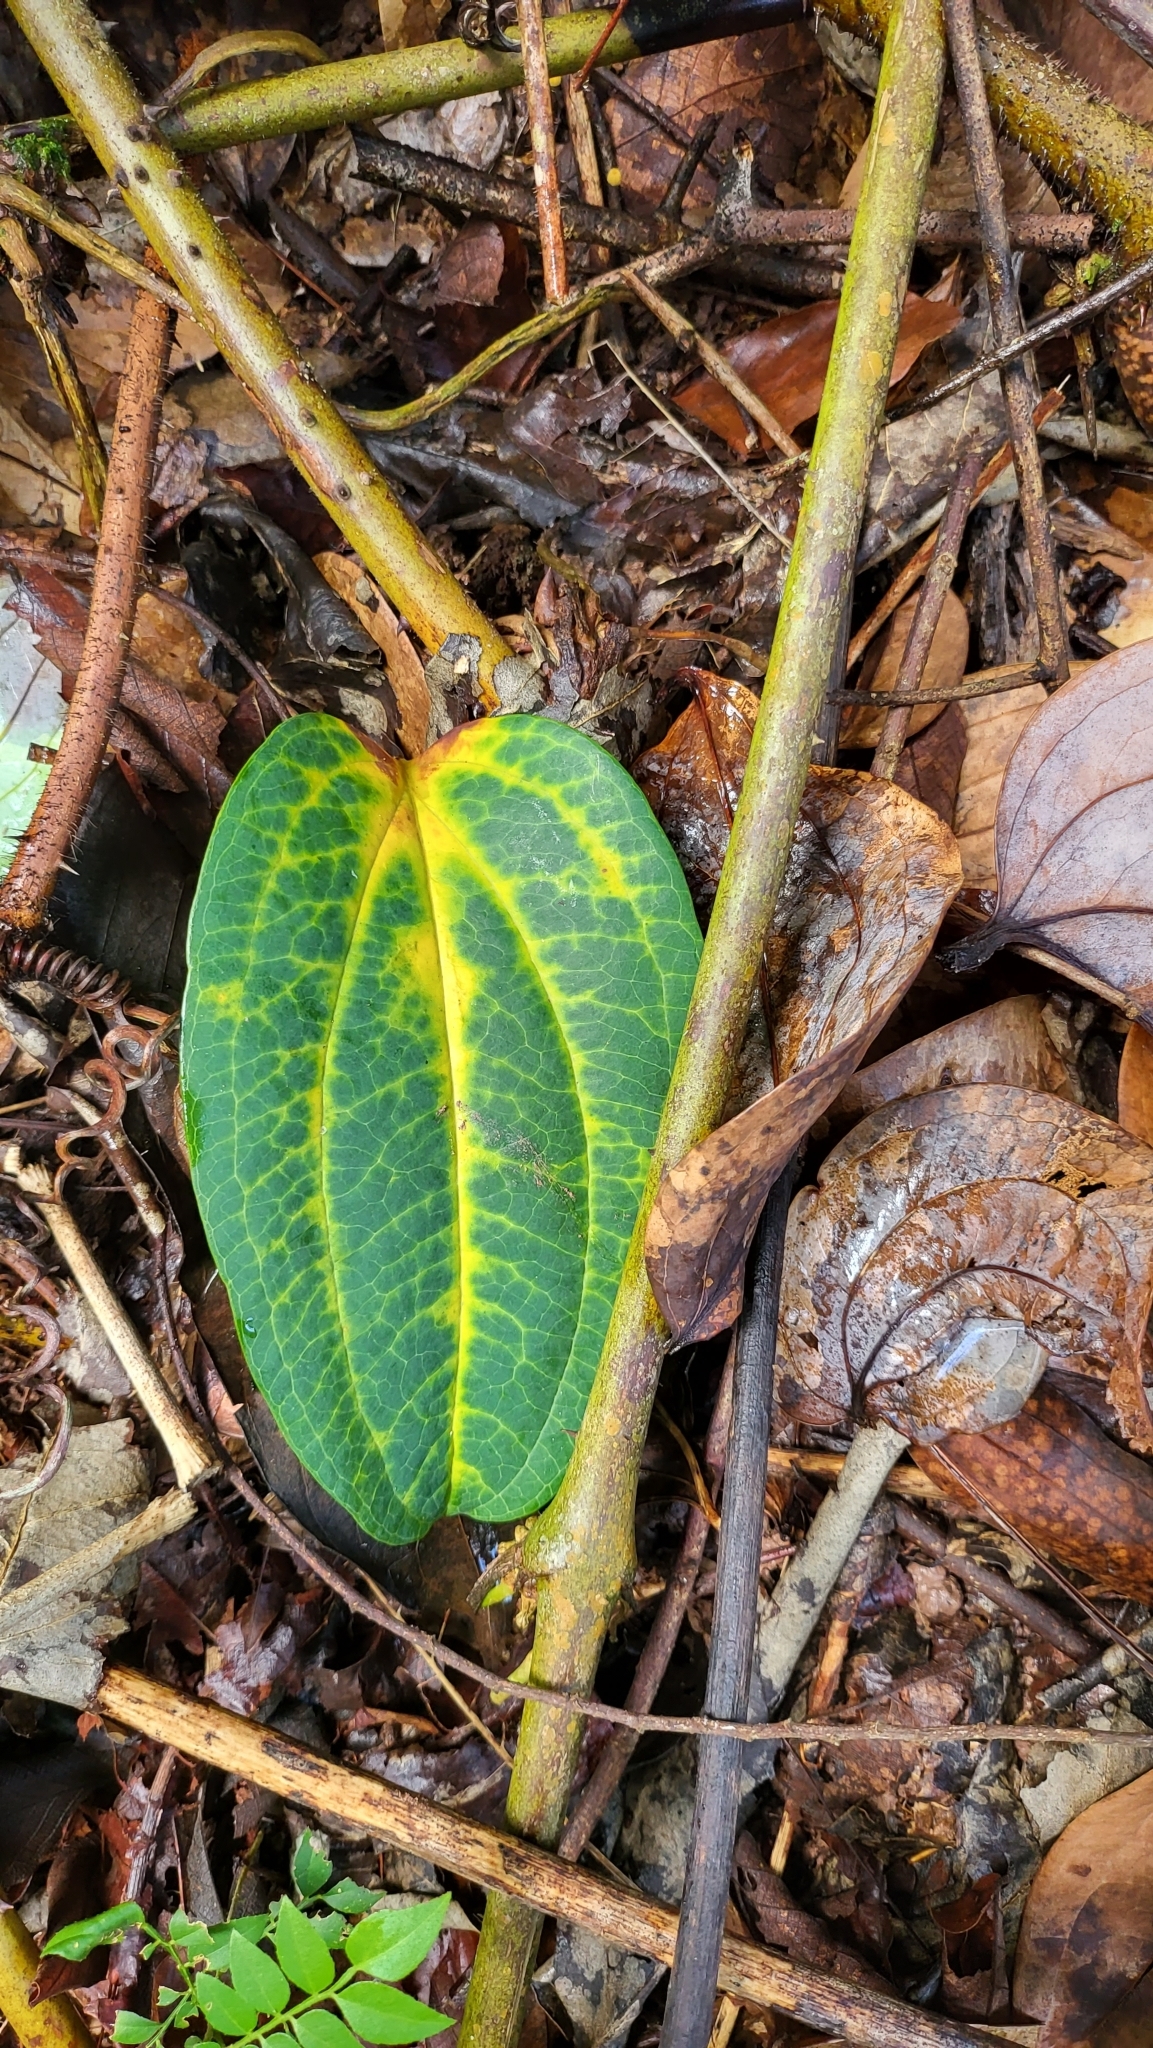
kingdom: Plantae
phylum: Tracheophyta
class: Liliopsida
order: Liliales
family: Smilacaceae
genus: Smilax
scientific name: Smilax bracteata
